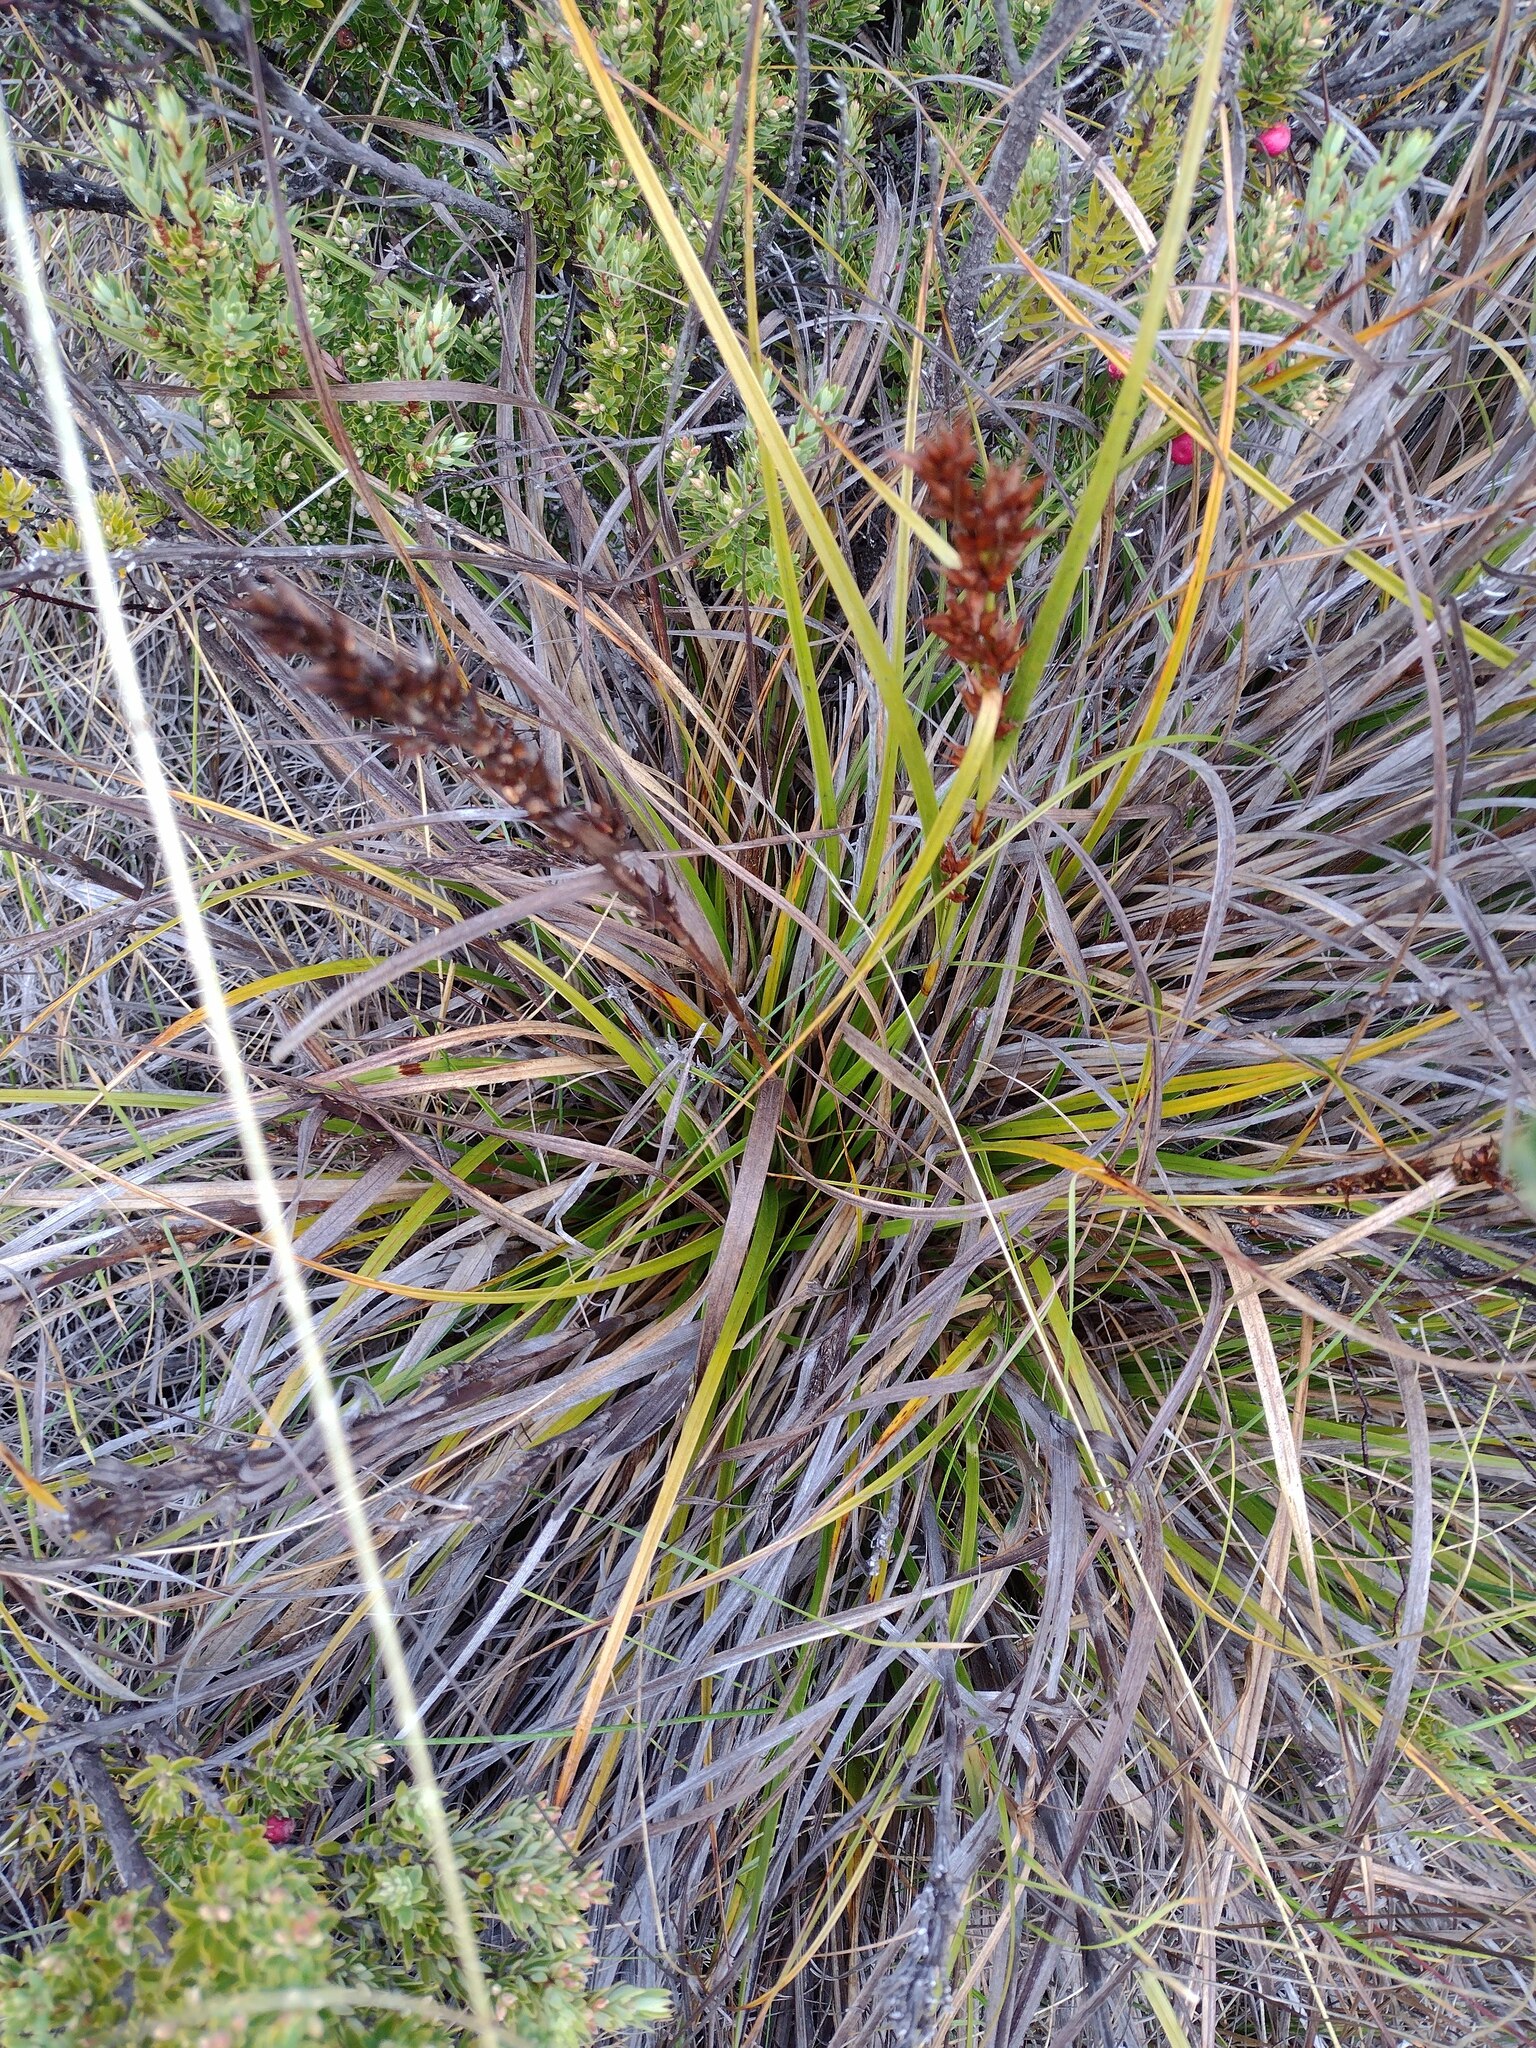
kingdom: Plantae
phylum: Tracheophyta
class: Liliopsida
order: Poales
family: Cyperaceae
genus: Morelotia
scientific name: Morelotia gahniiformis
